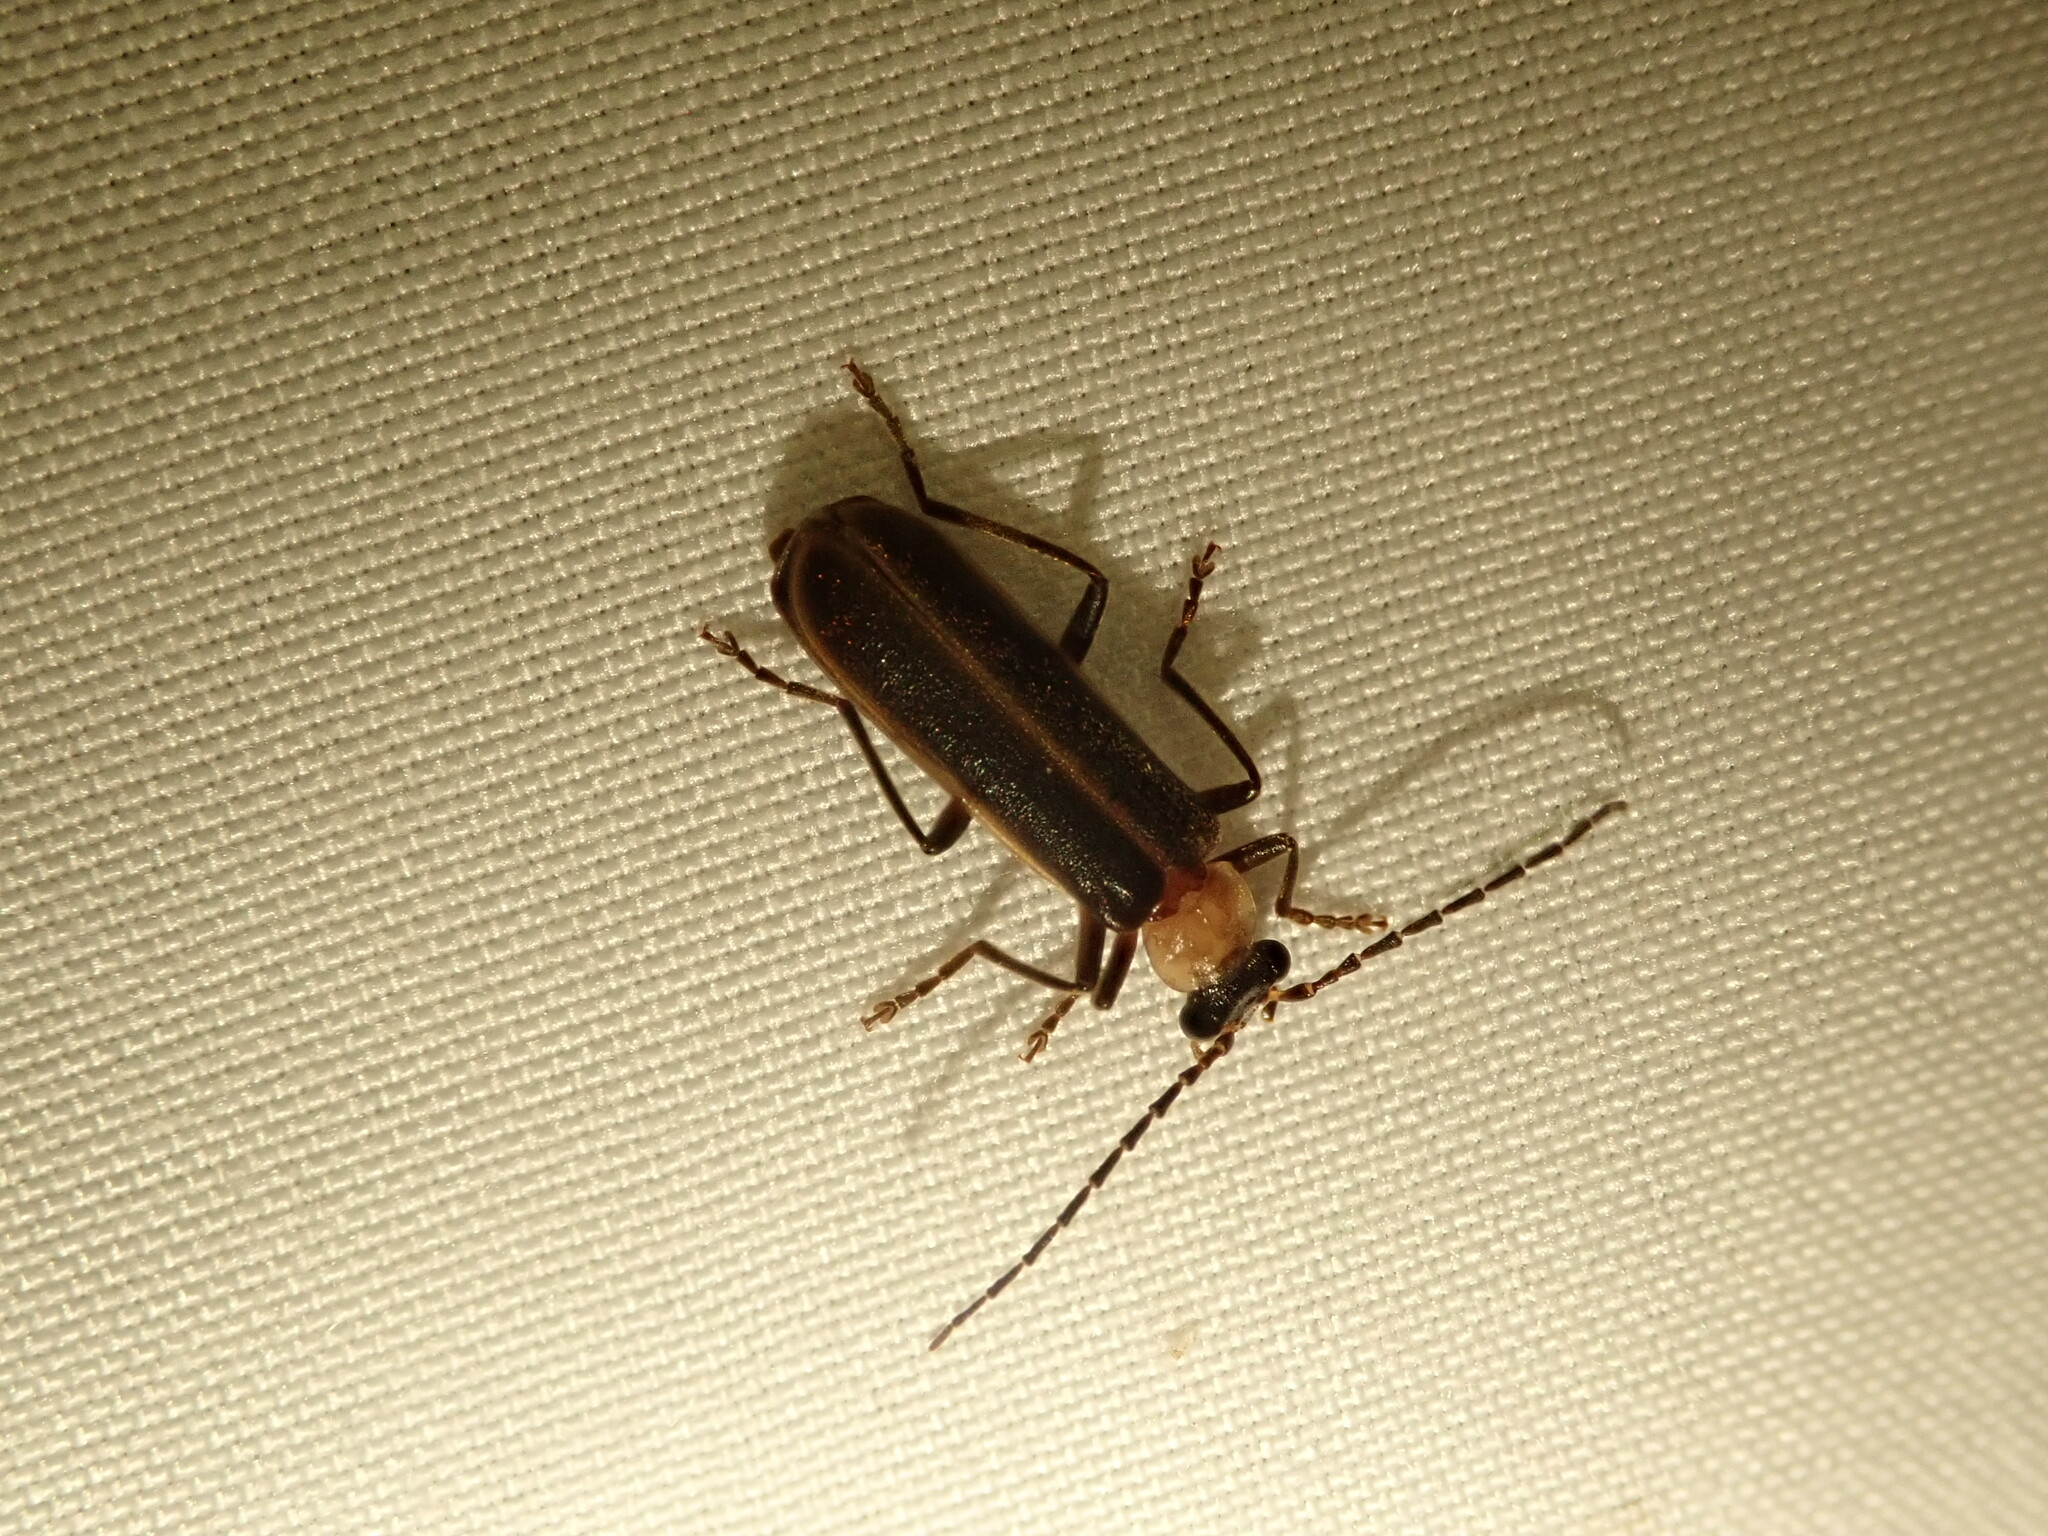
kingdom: Animalia
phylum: Arthropoda
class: Insecta
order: Coleoptera
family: Cantharidae
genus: Podabrus
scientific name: Podabrus flavicollis
